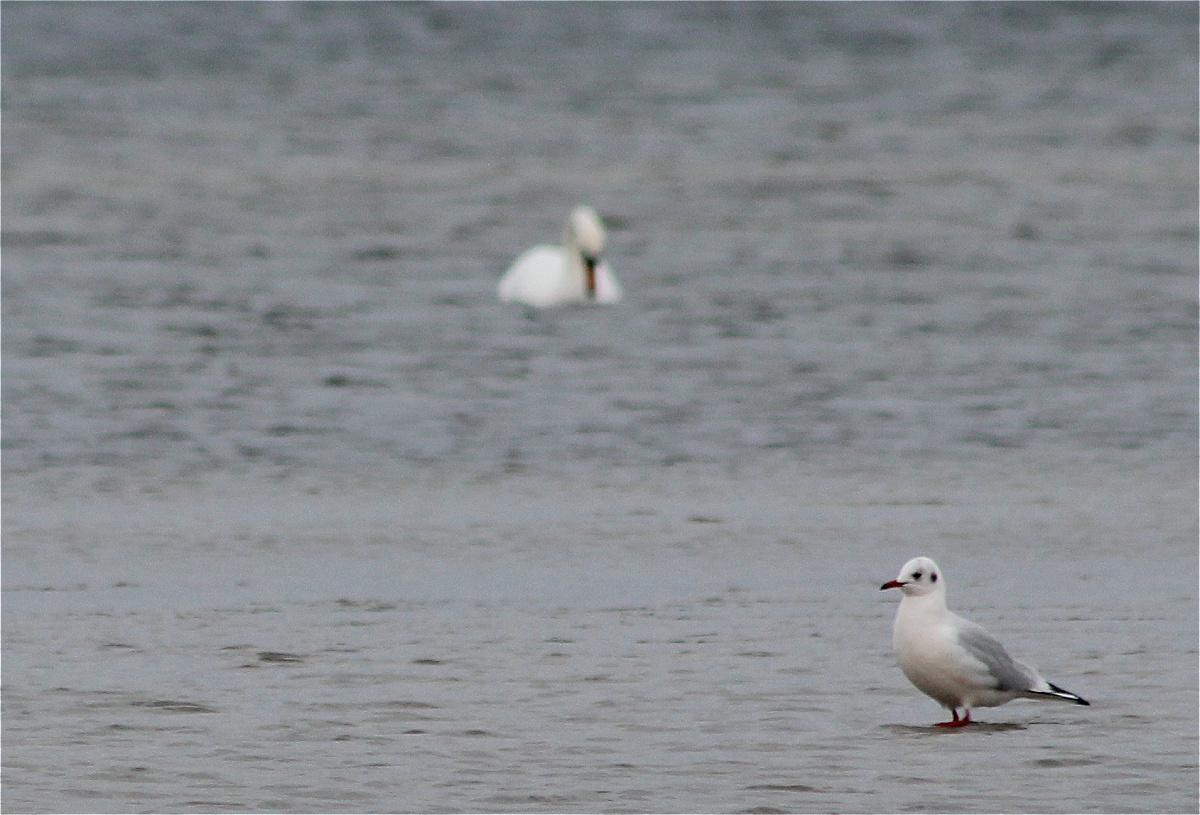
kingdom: Animalia
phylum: Chordata
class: Aves
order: Charadriiformes
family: Laridae
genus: Chroicocephalus
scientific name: Chroicocephalus ridibundus
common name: Black-headed gull
